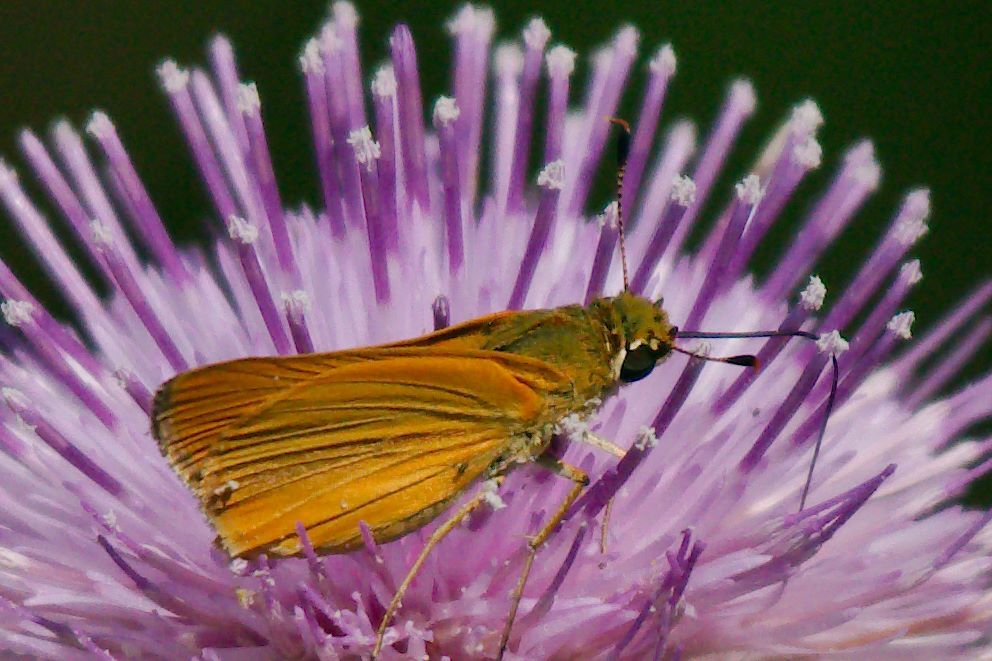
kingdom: Animalia
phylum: Arthropoda
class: Insecta
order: Lepidoptera
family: Hesperiidae
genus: Atrytone
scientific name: Atrytone delaware
